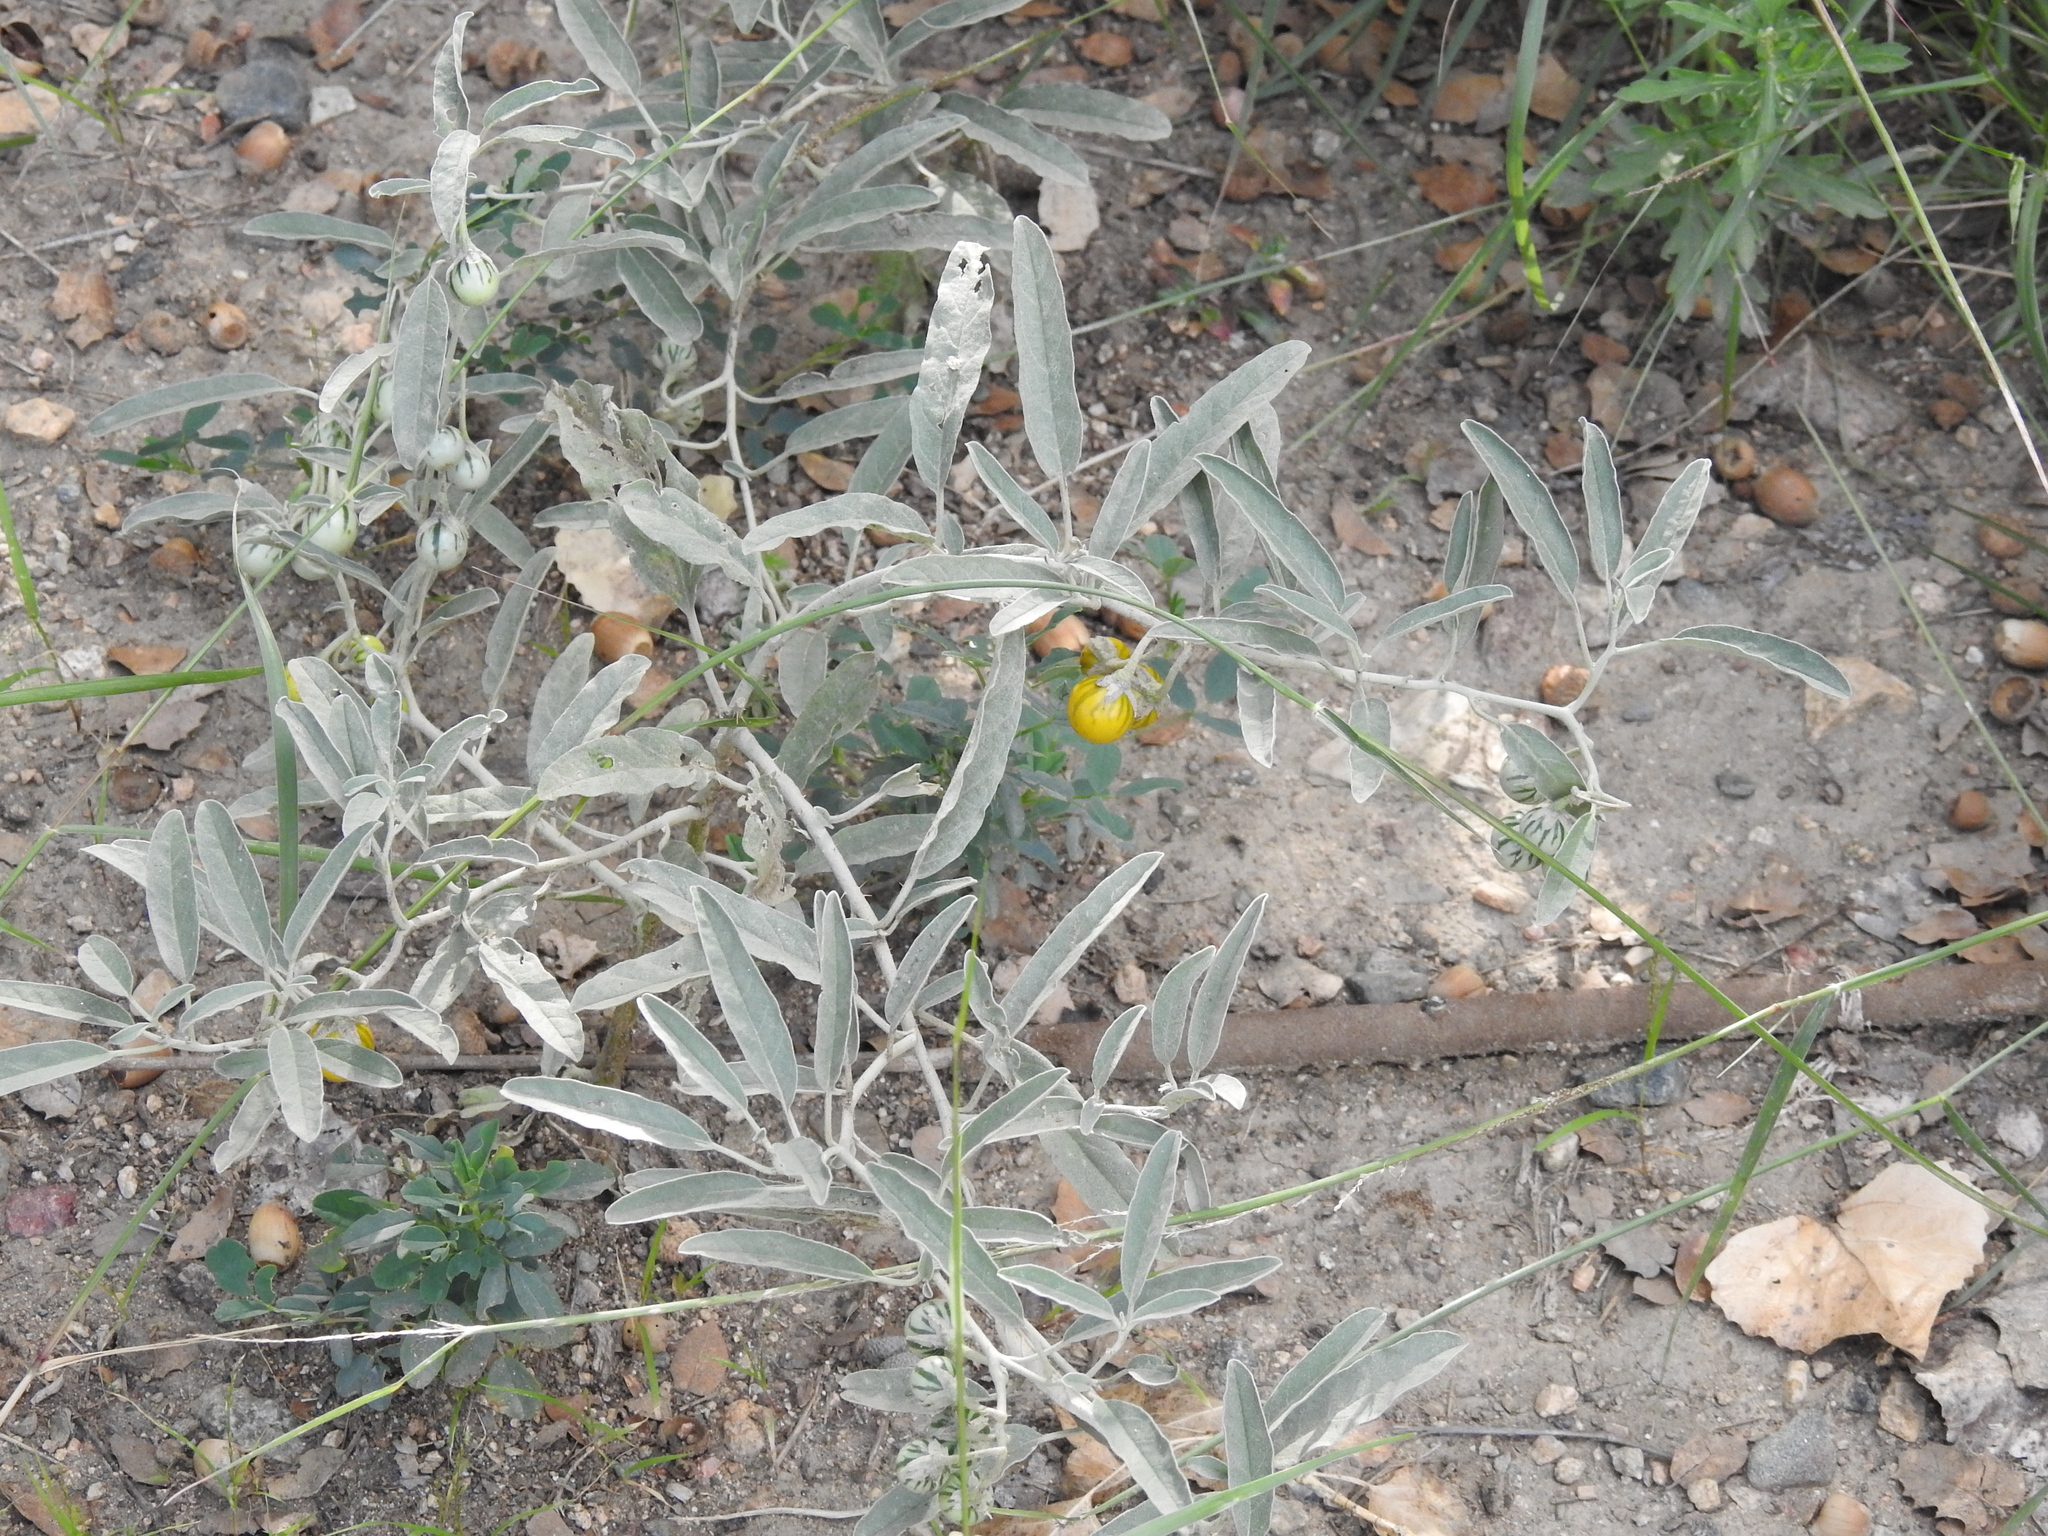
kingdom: Plantae
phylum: Tracheophyta
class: Magnoliopsida
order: Solanales
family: Solanaceae
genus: Solanum
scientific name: Solanum elaeagnifolium
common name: Silverleaf nightshade
